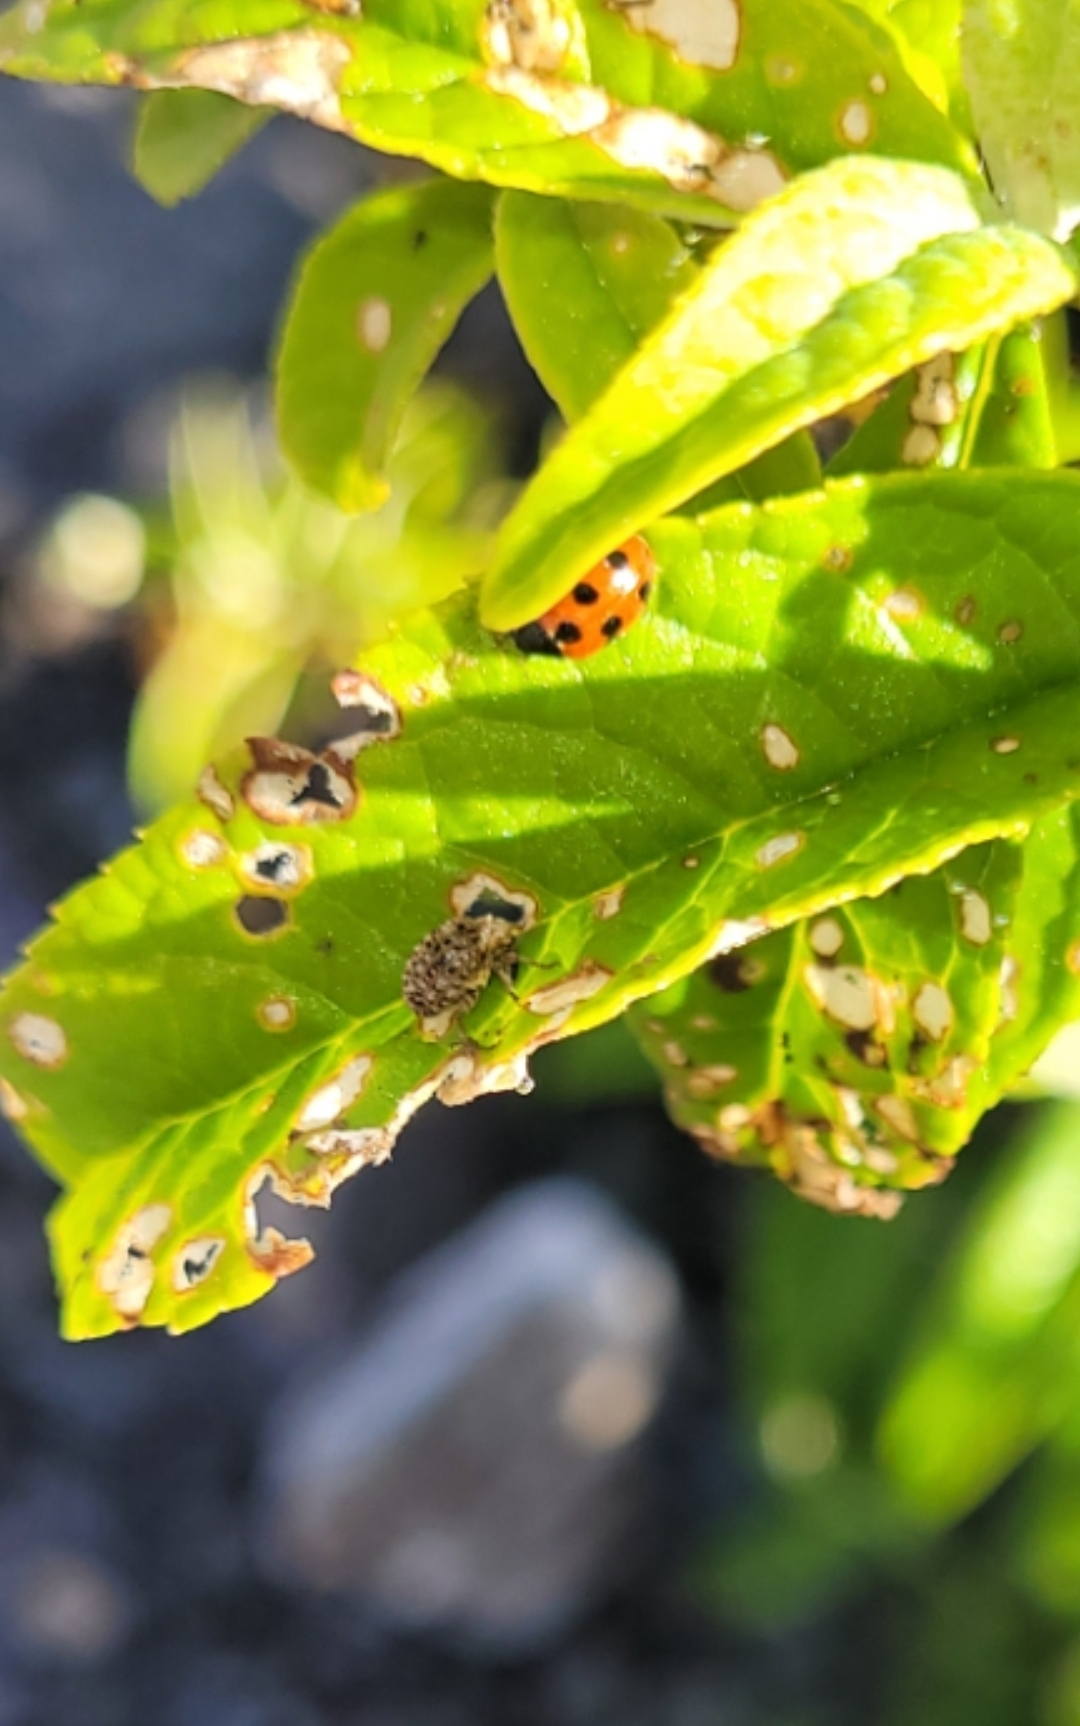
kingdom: Animalia
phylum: Arthropoda
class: Insecta
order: Coleoptera
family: Curculionidae
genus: Cleopus
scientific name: Cleopus japonicus
